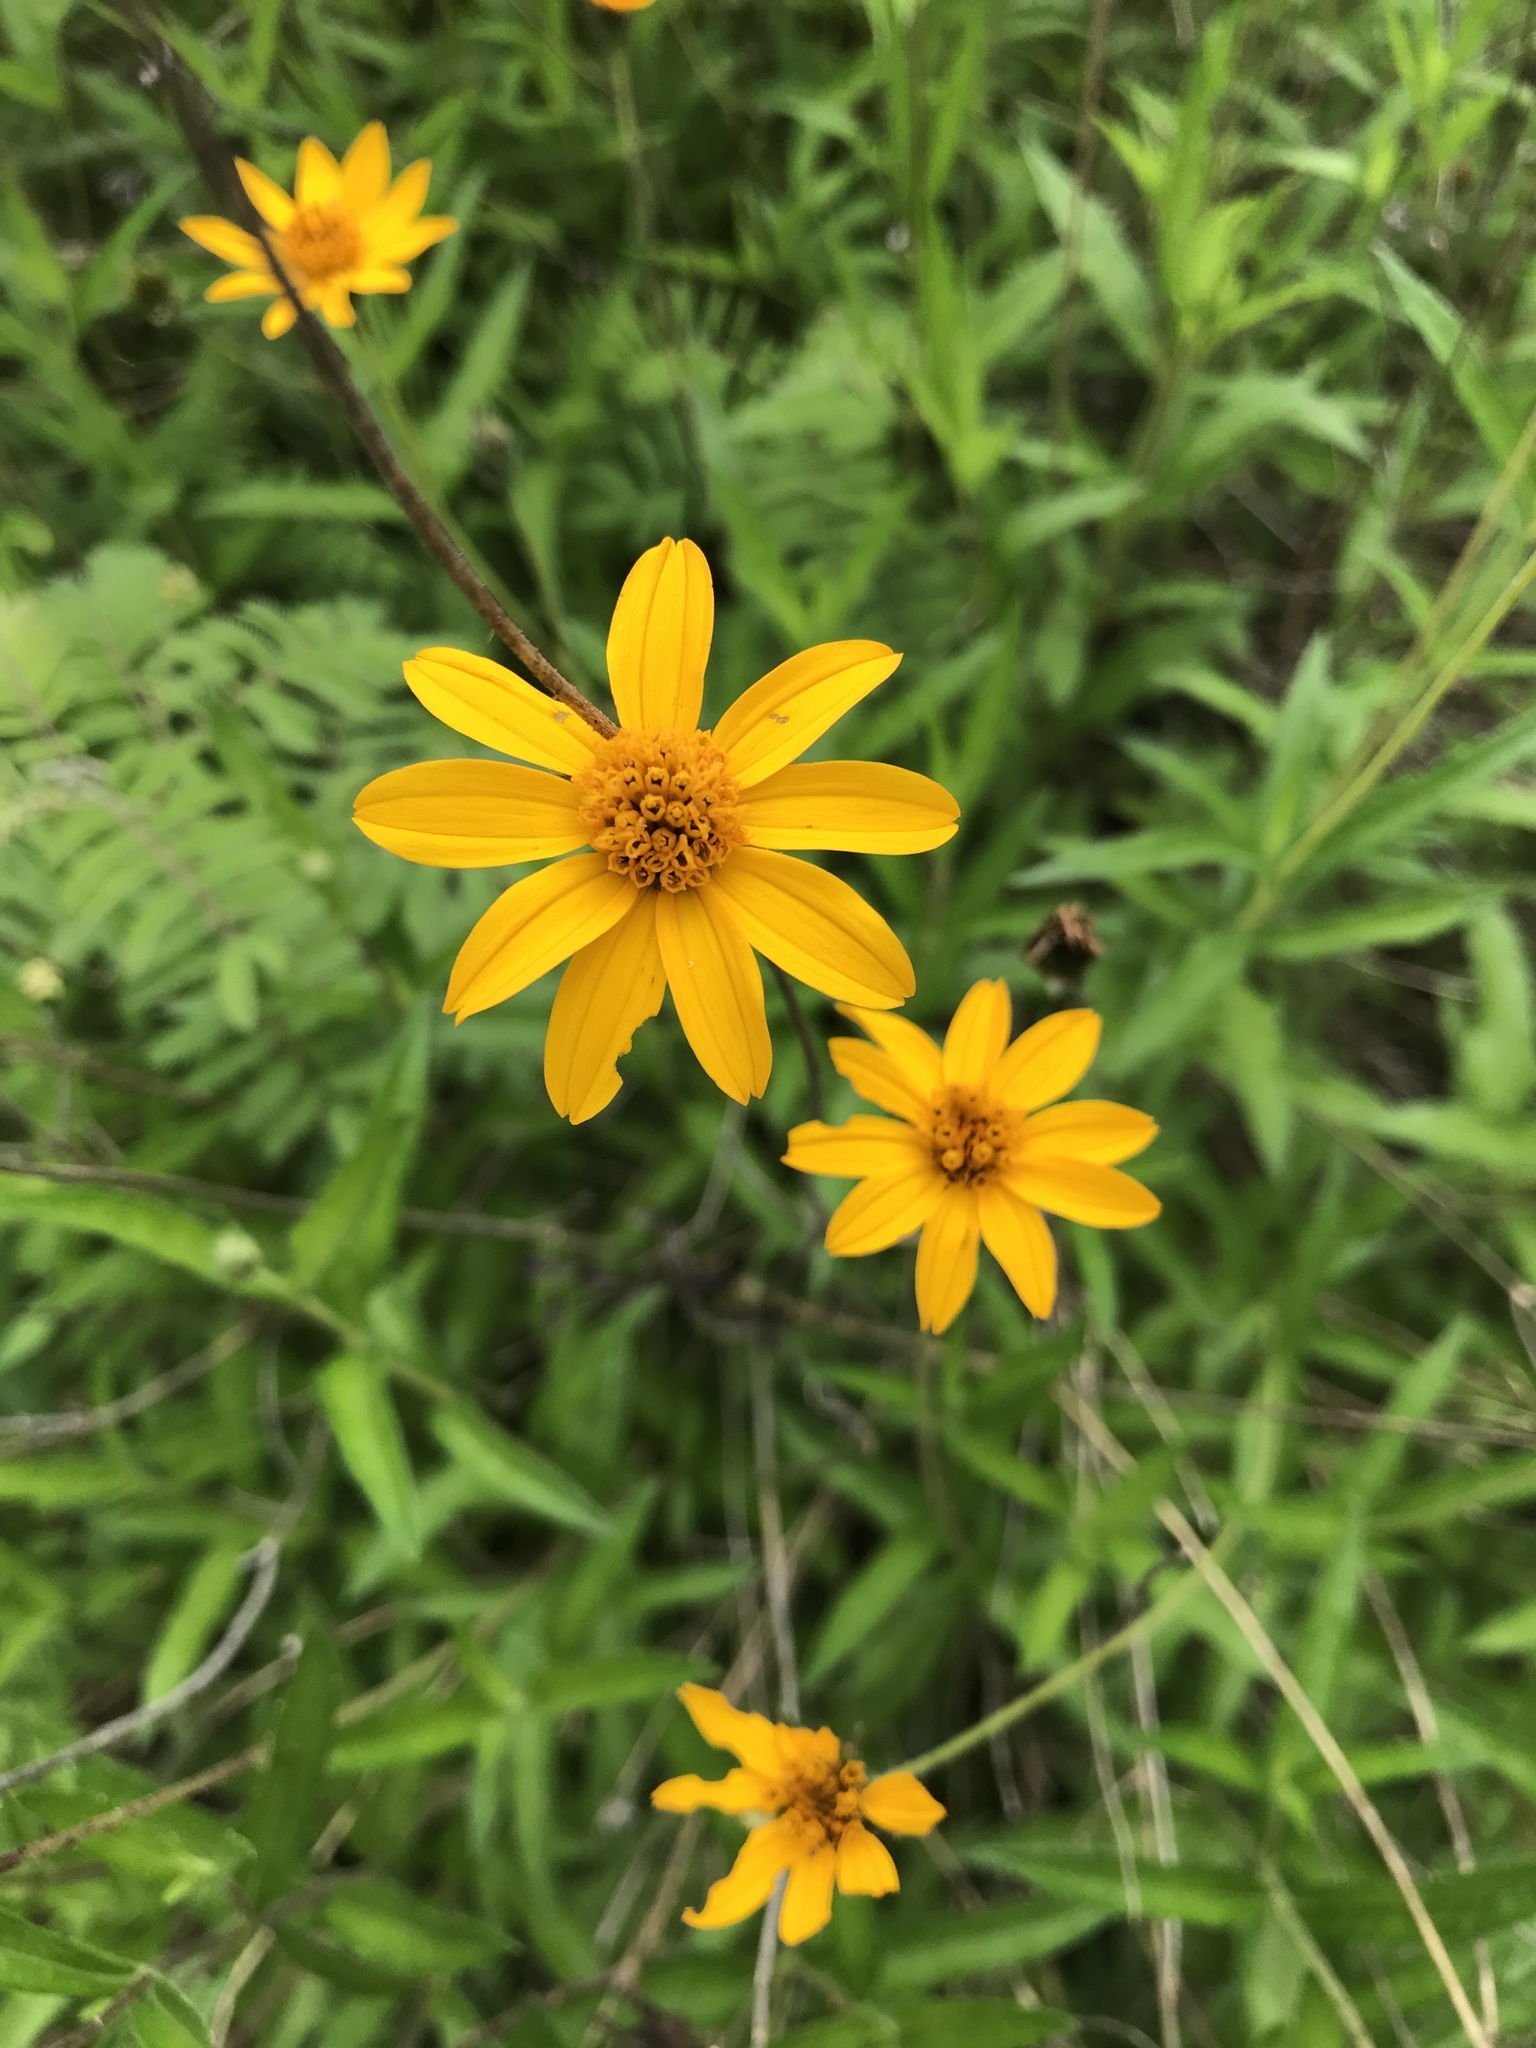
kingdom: Plantae
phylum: Tracheophyta
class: Magnoliopsida
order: Asterales
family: Asteraceae
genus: Wedelia
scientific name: Wedelia acapulcensis
